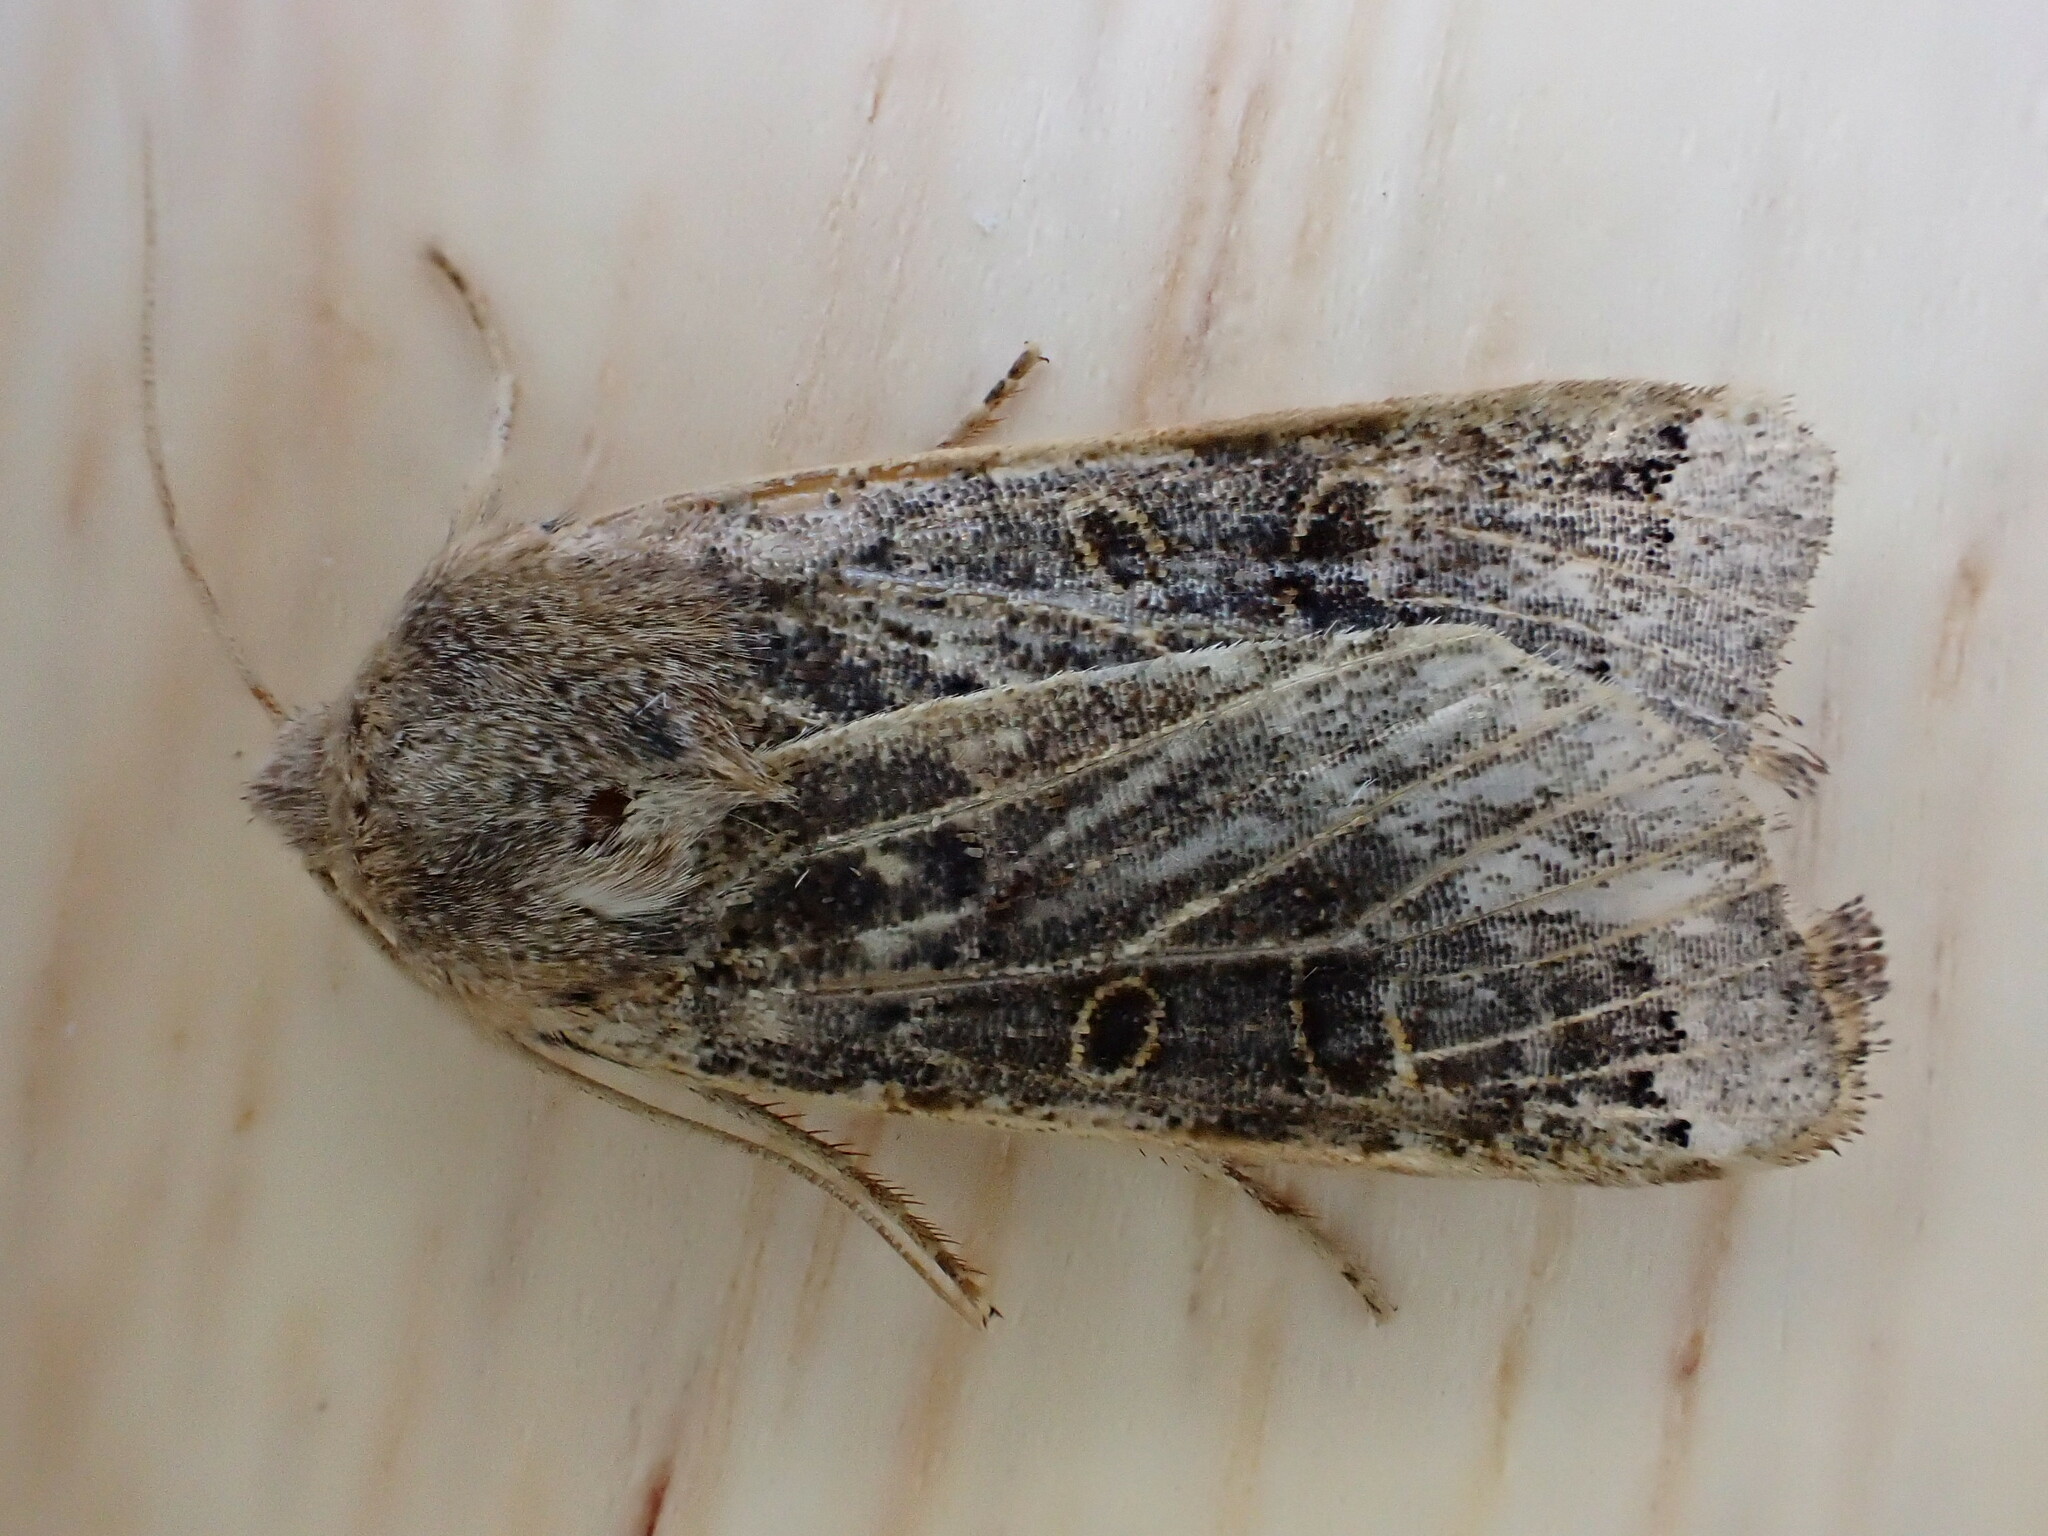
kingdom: Animalia
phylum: Arthropoda
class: Insecta
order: Lepidoptera
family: Noctuidae
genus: Agrochola
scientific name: Agrochola lunosa
